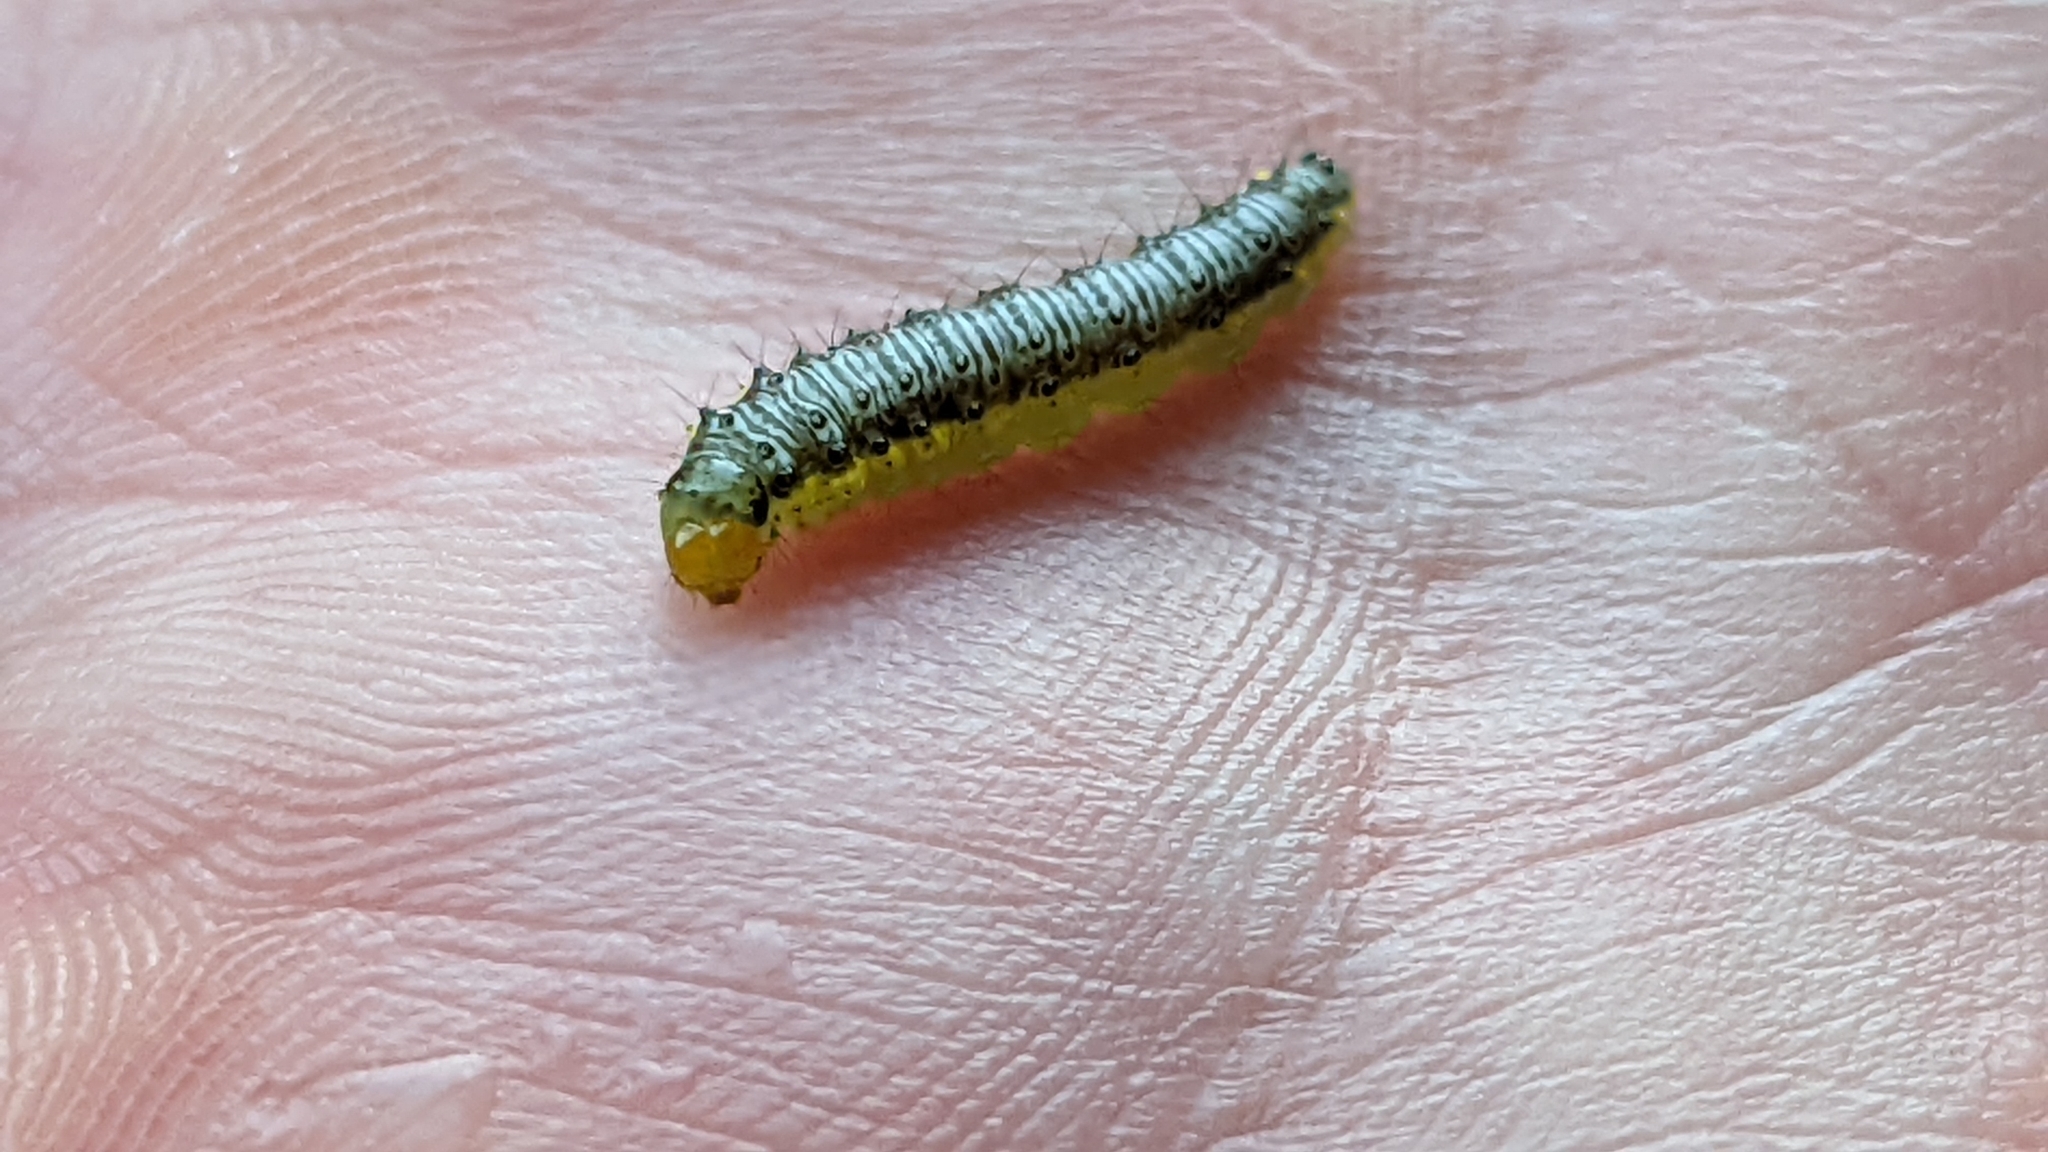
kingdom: Animalia
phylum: Arthropoda
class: Insecta
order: Lepidoptera
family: Crambidae
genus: Evergestis
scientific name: Evergestis rimosalis
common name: Cross-striped cabbageworm moth
